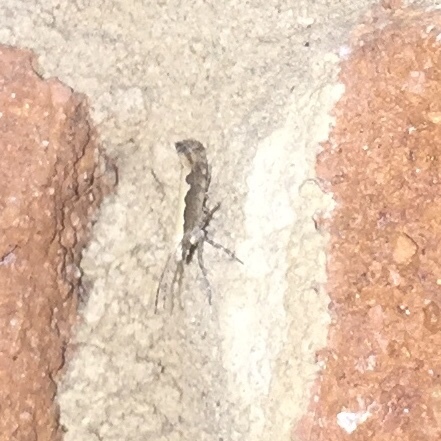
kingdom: Animalia
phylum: Arthropoda
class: Insecta
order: Lepidoptera
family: Plutellidae
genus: Plutella
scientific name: Plutella xylostella
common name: Diamond-back moth
